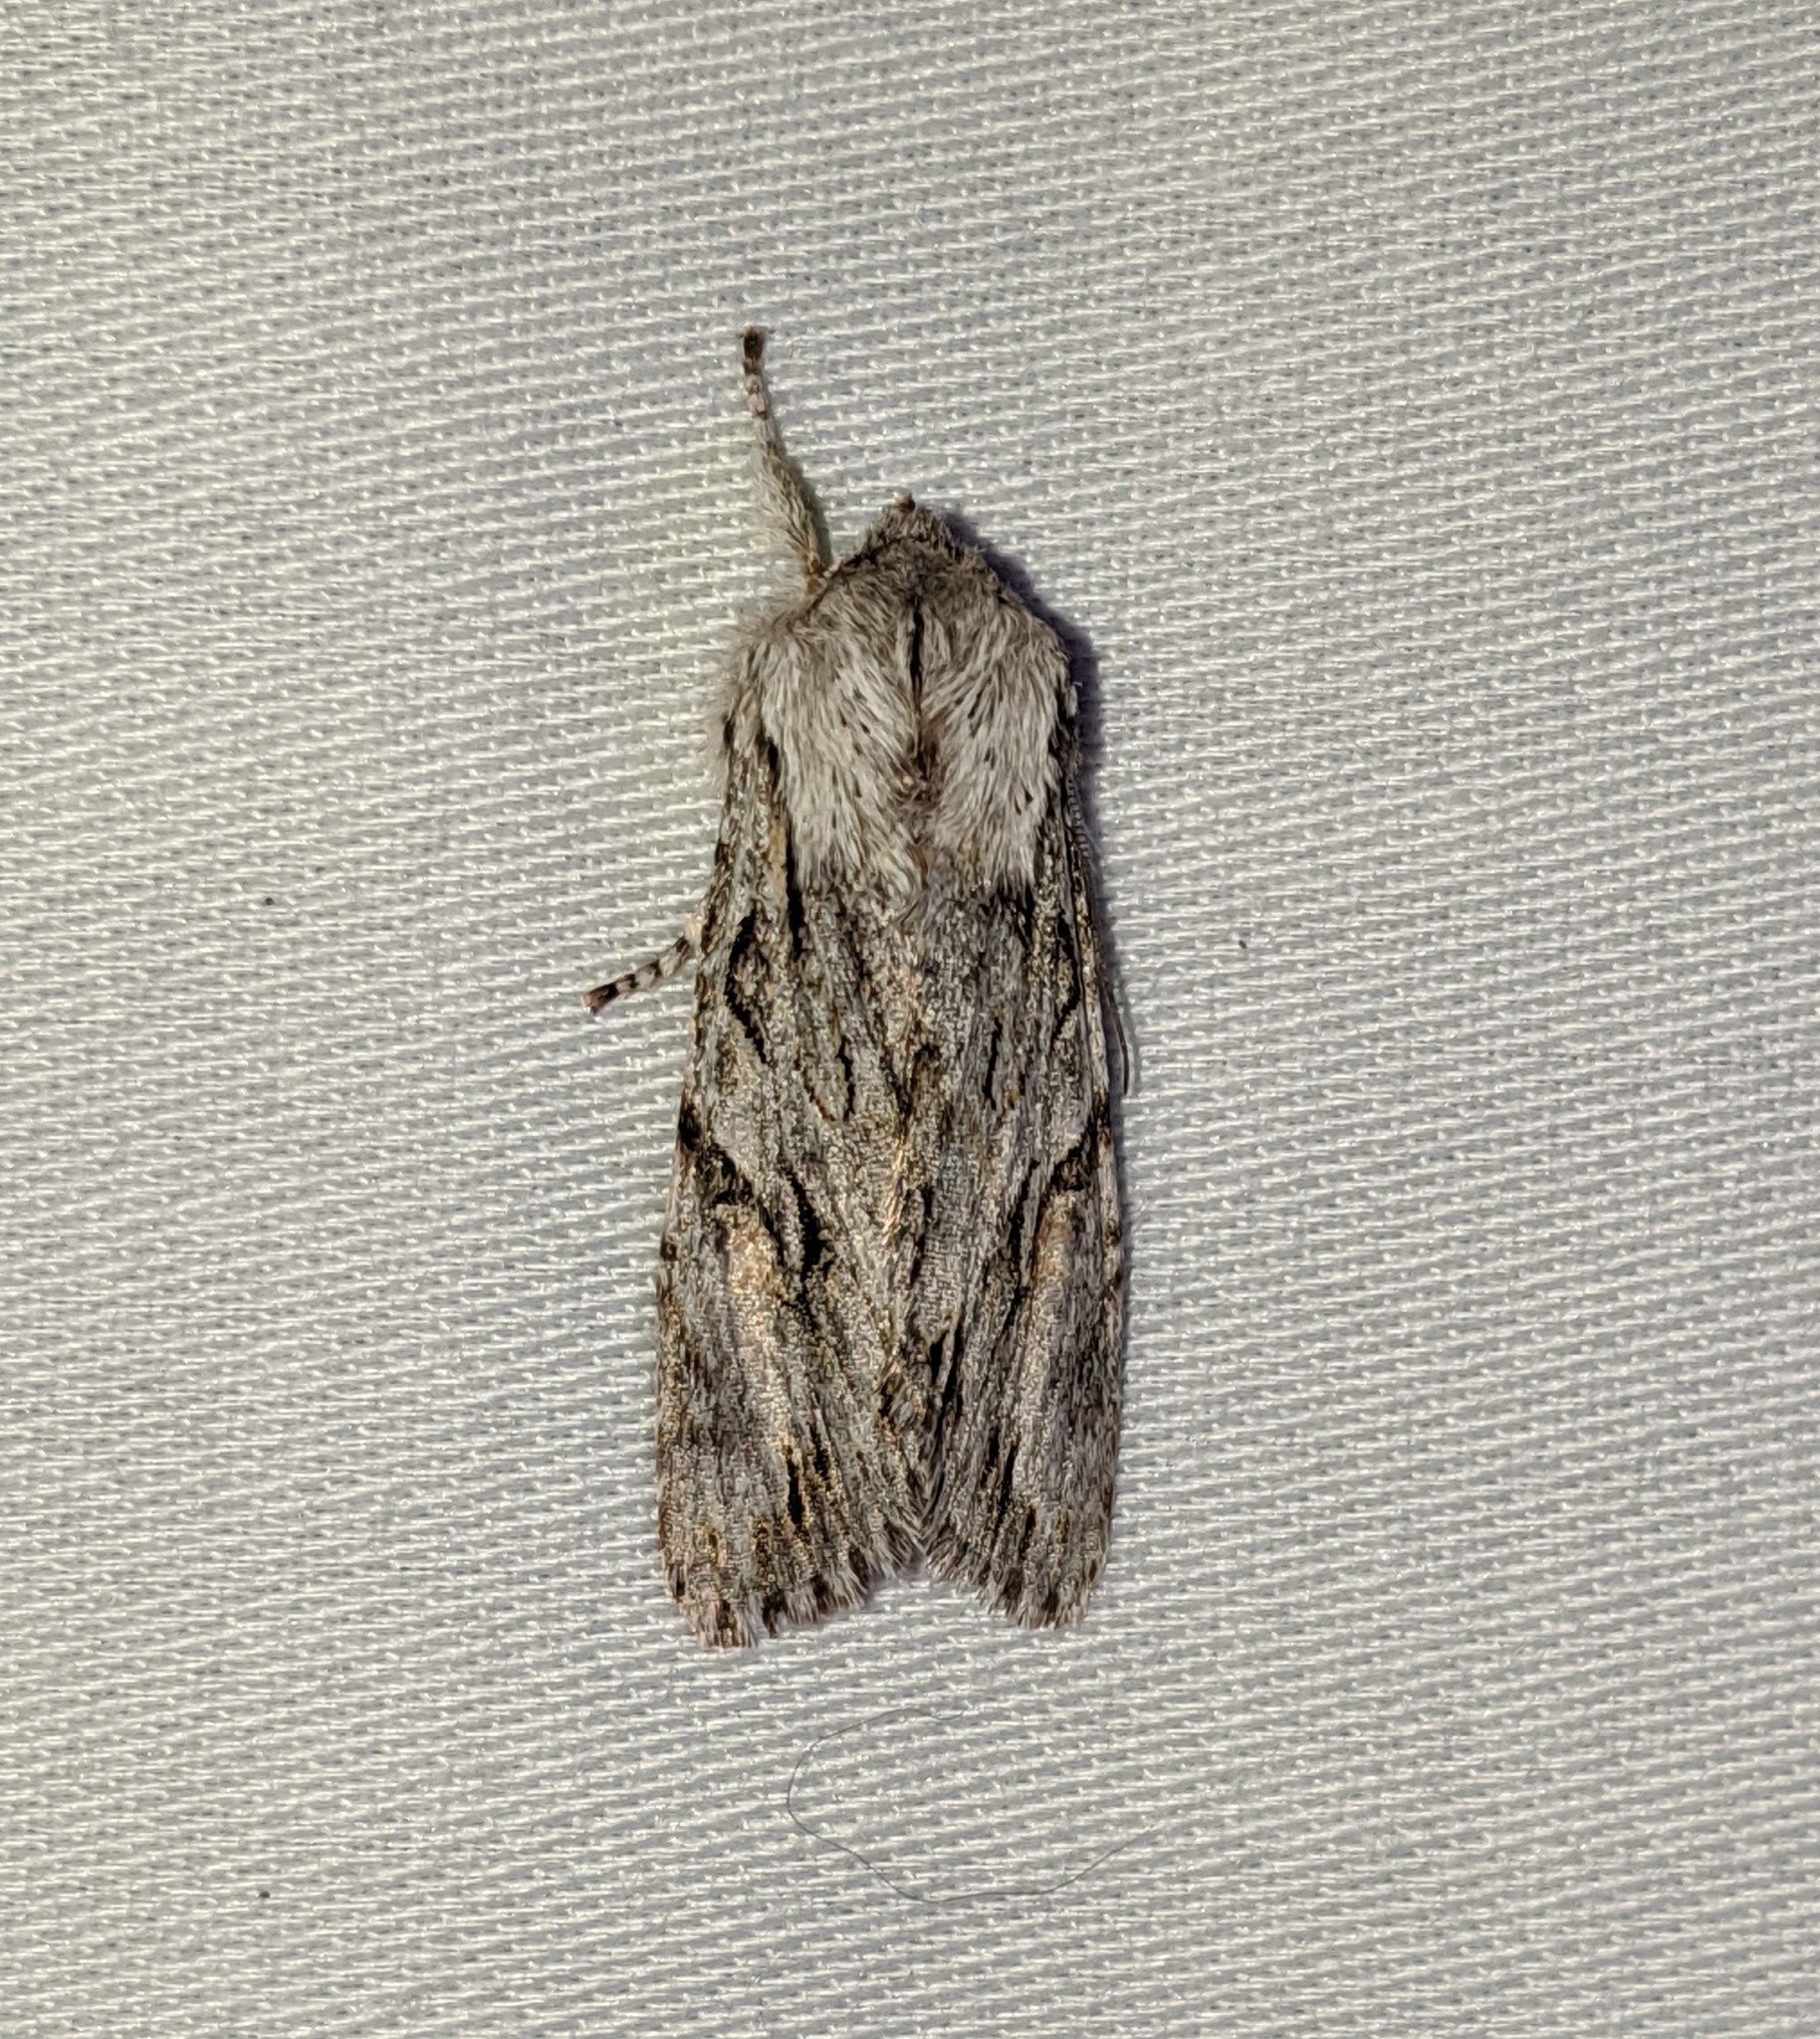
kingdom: Animalia
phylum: Arthropoda
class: Insecta
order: Lepidoptera
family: Noctuidae
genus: Egira
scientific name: Egira crucialis
